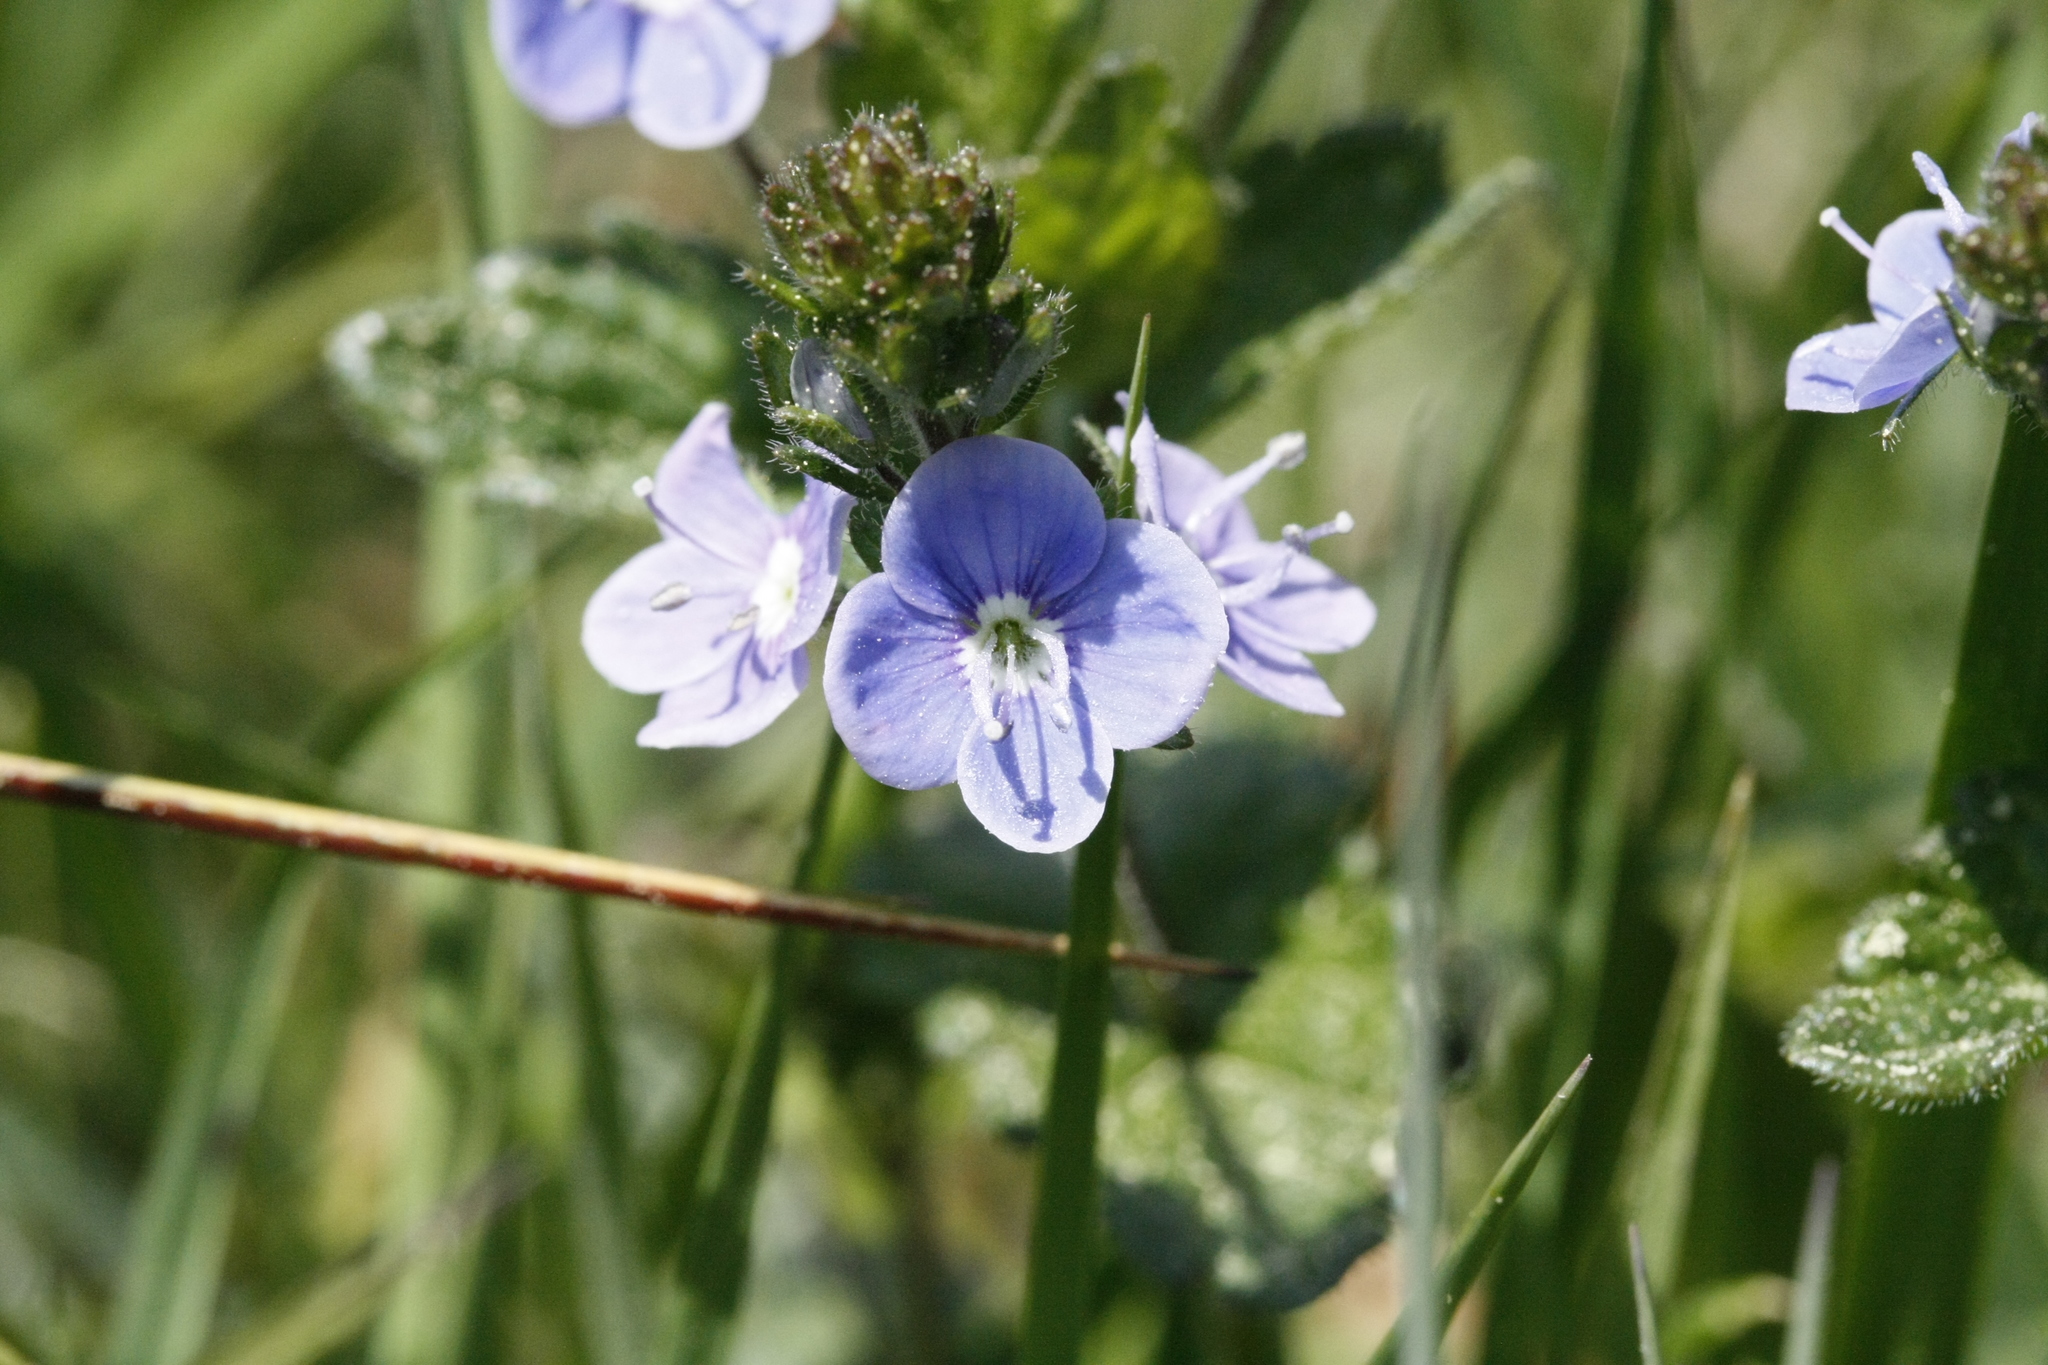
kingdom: Plantae
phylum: Tracheophyta
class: Magnoliopsida
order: Lamiales
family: Plantaginaceae
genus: Veronica
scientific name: Veronica chamaedrys
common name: Germander speedwell
